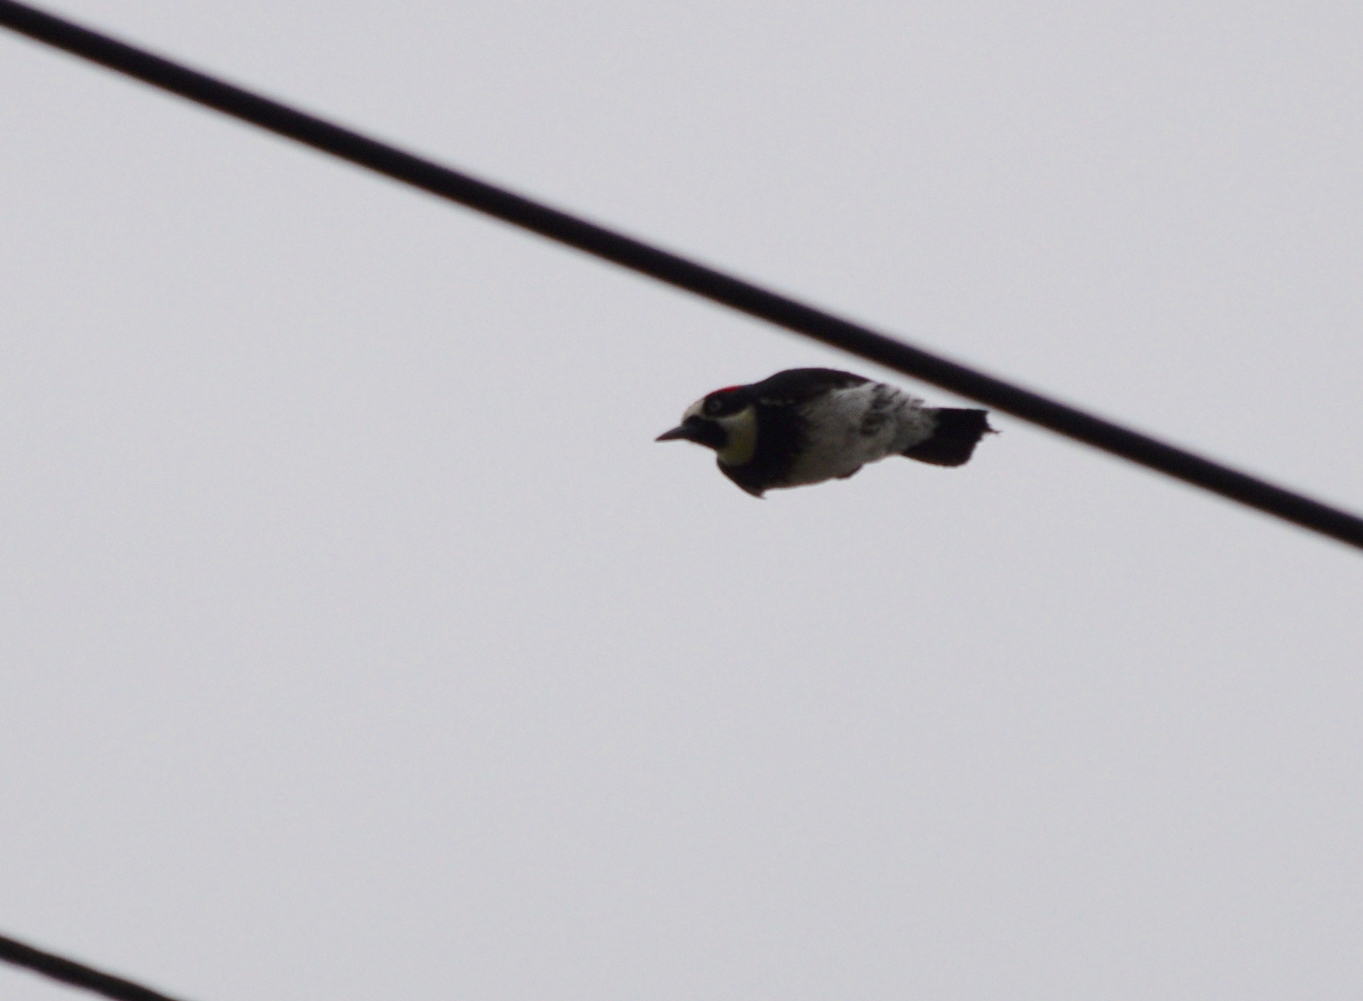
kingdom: Animalia
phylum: Chordata
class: Aves
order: Piciformes
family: Picidae
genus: Melanerpes
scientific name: Melanerpes formicivorus
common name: Acorn woodpecker
